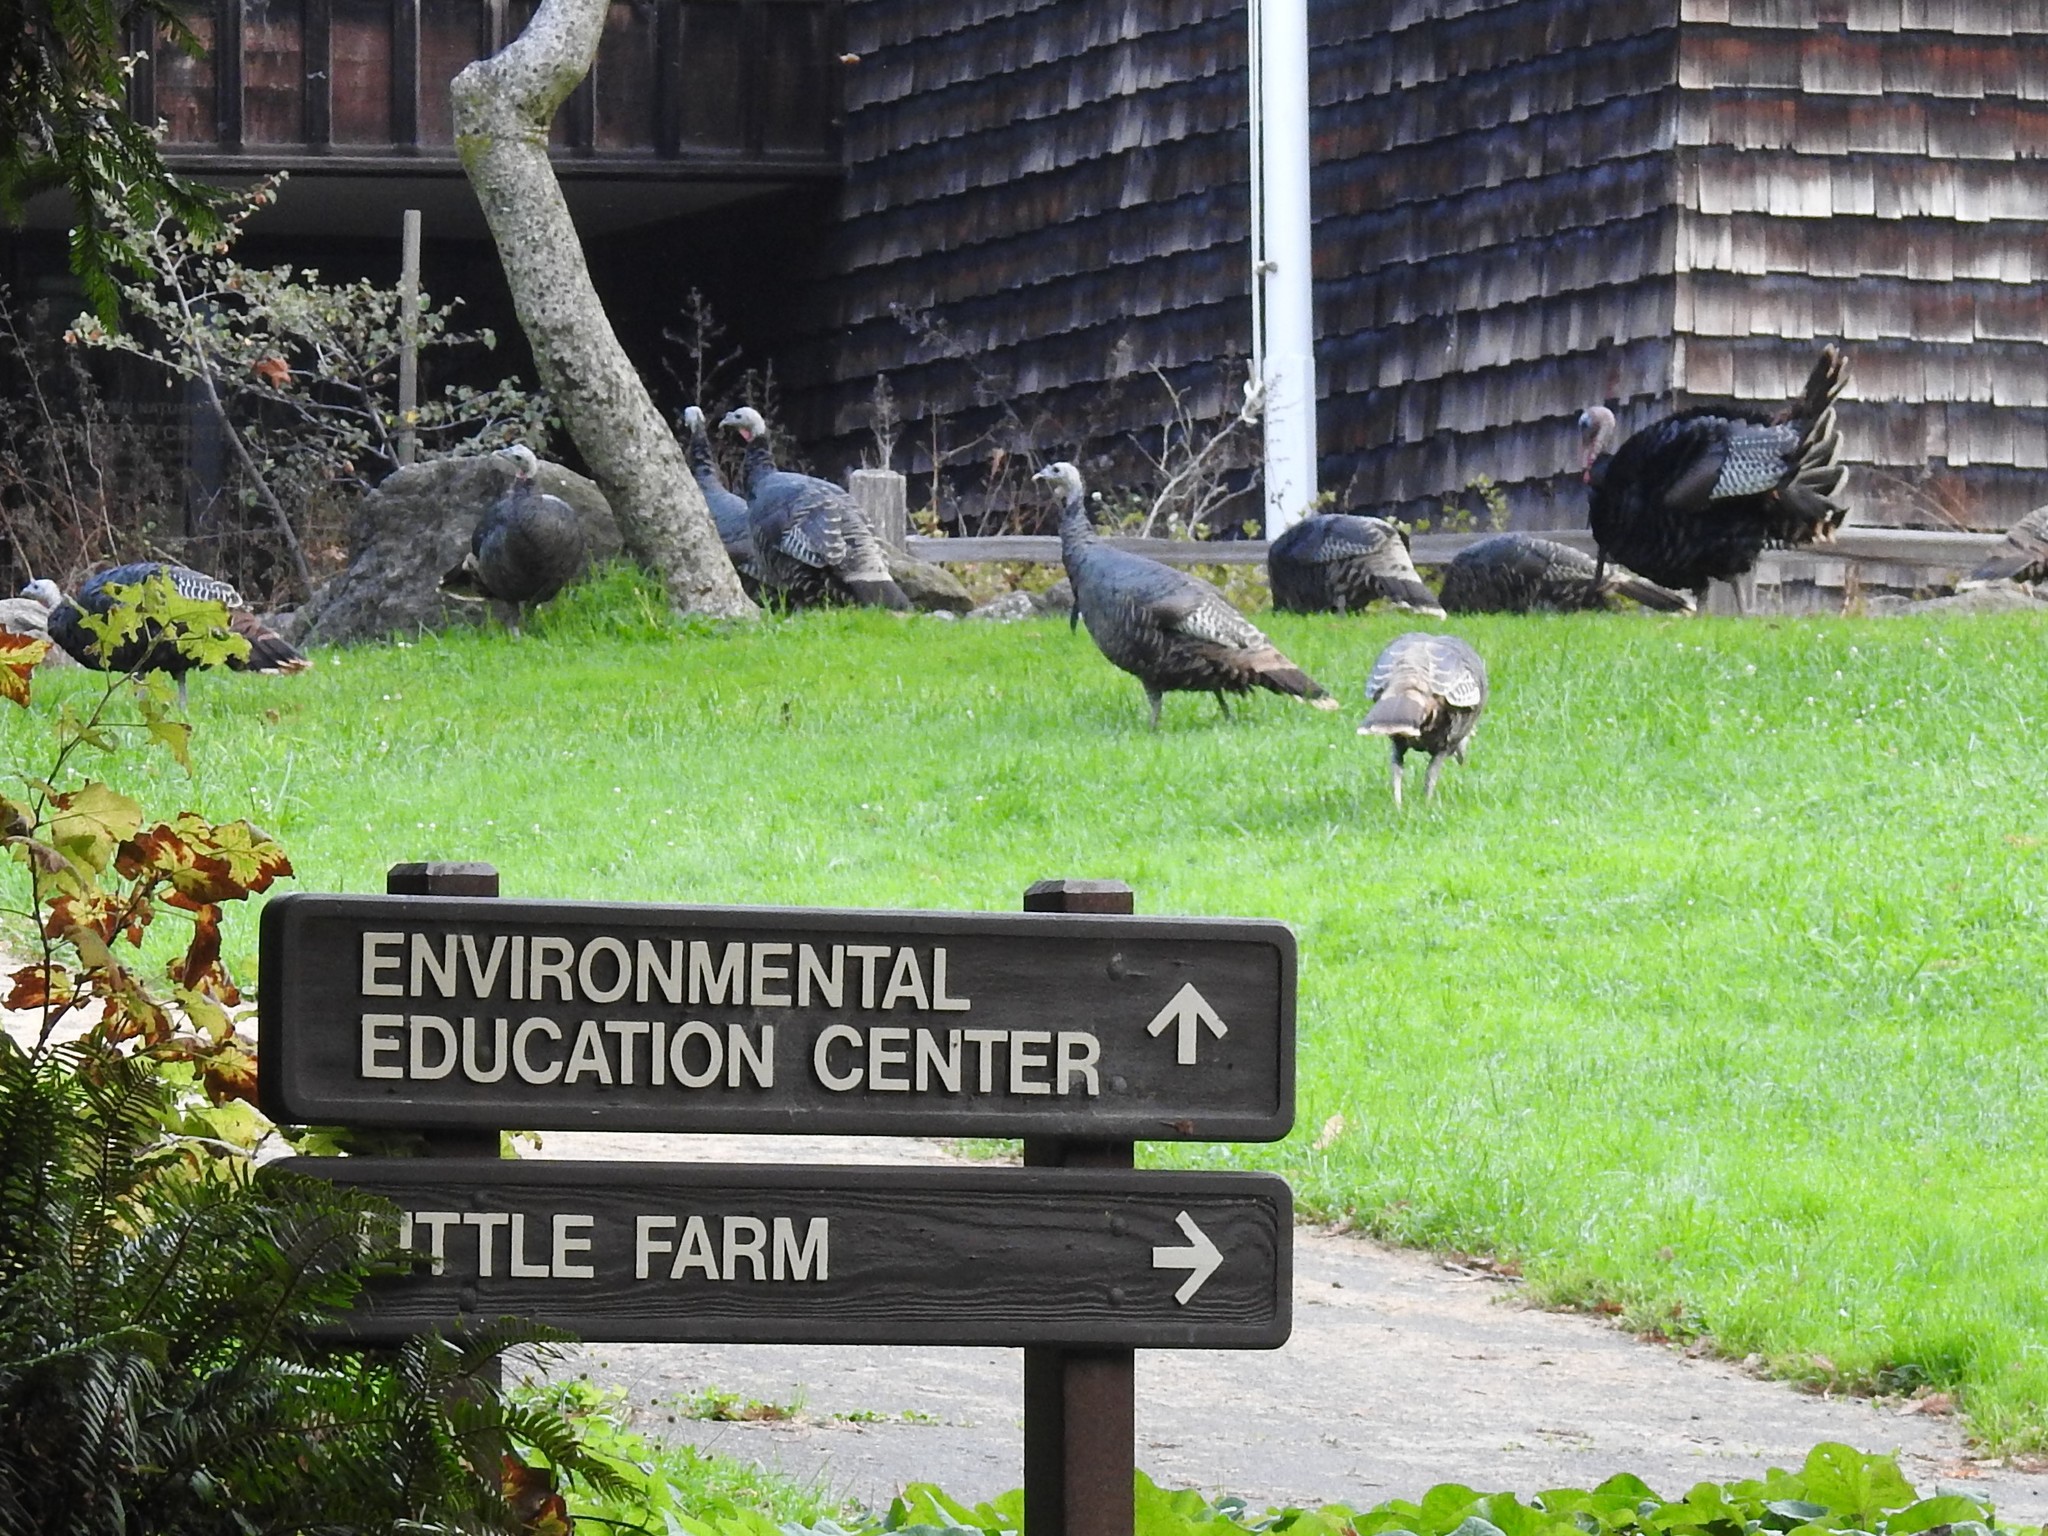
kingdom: Animalia
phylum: Chordata
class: Aves
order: Galliformes
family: Phasianidae
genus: Meleagris
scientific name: Meleagris gallopavo
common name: Wild turkey
